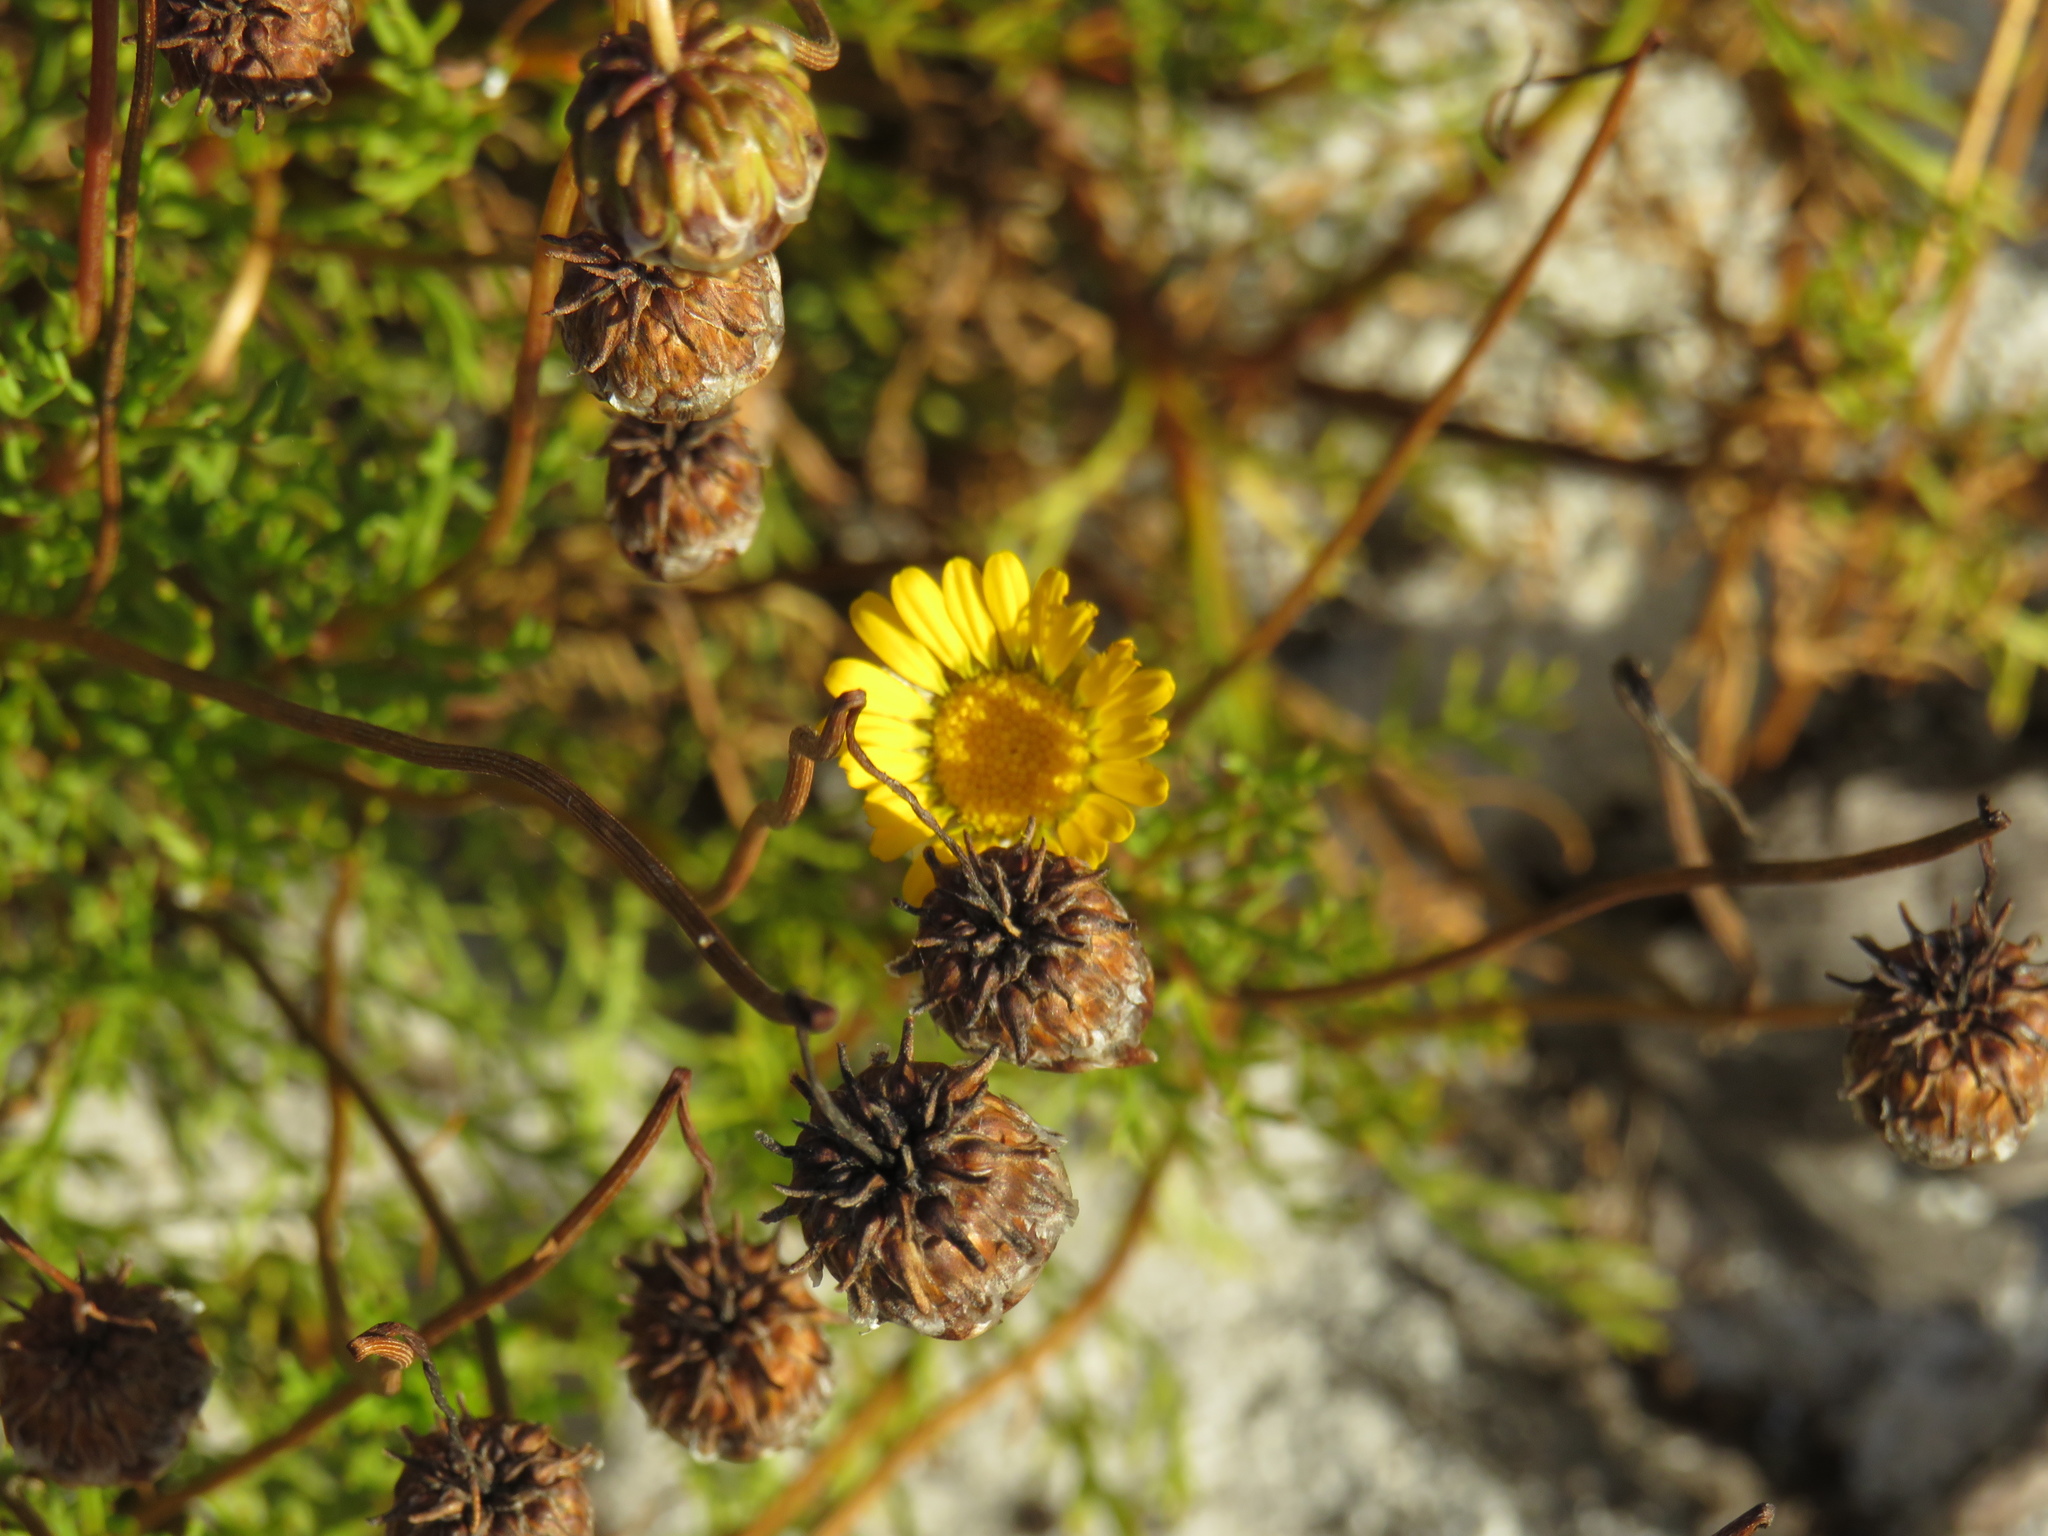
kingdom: Plantae
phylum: Tracheophyta
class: Magnoliopsida
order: Asterales
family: Asteraceae
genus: Ursinia
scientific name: Ursinia paleacea
